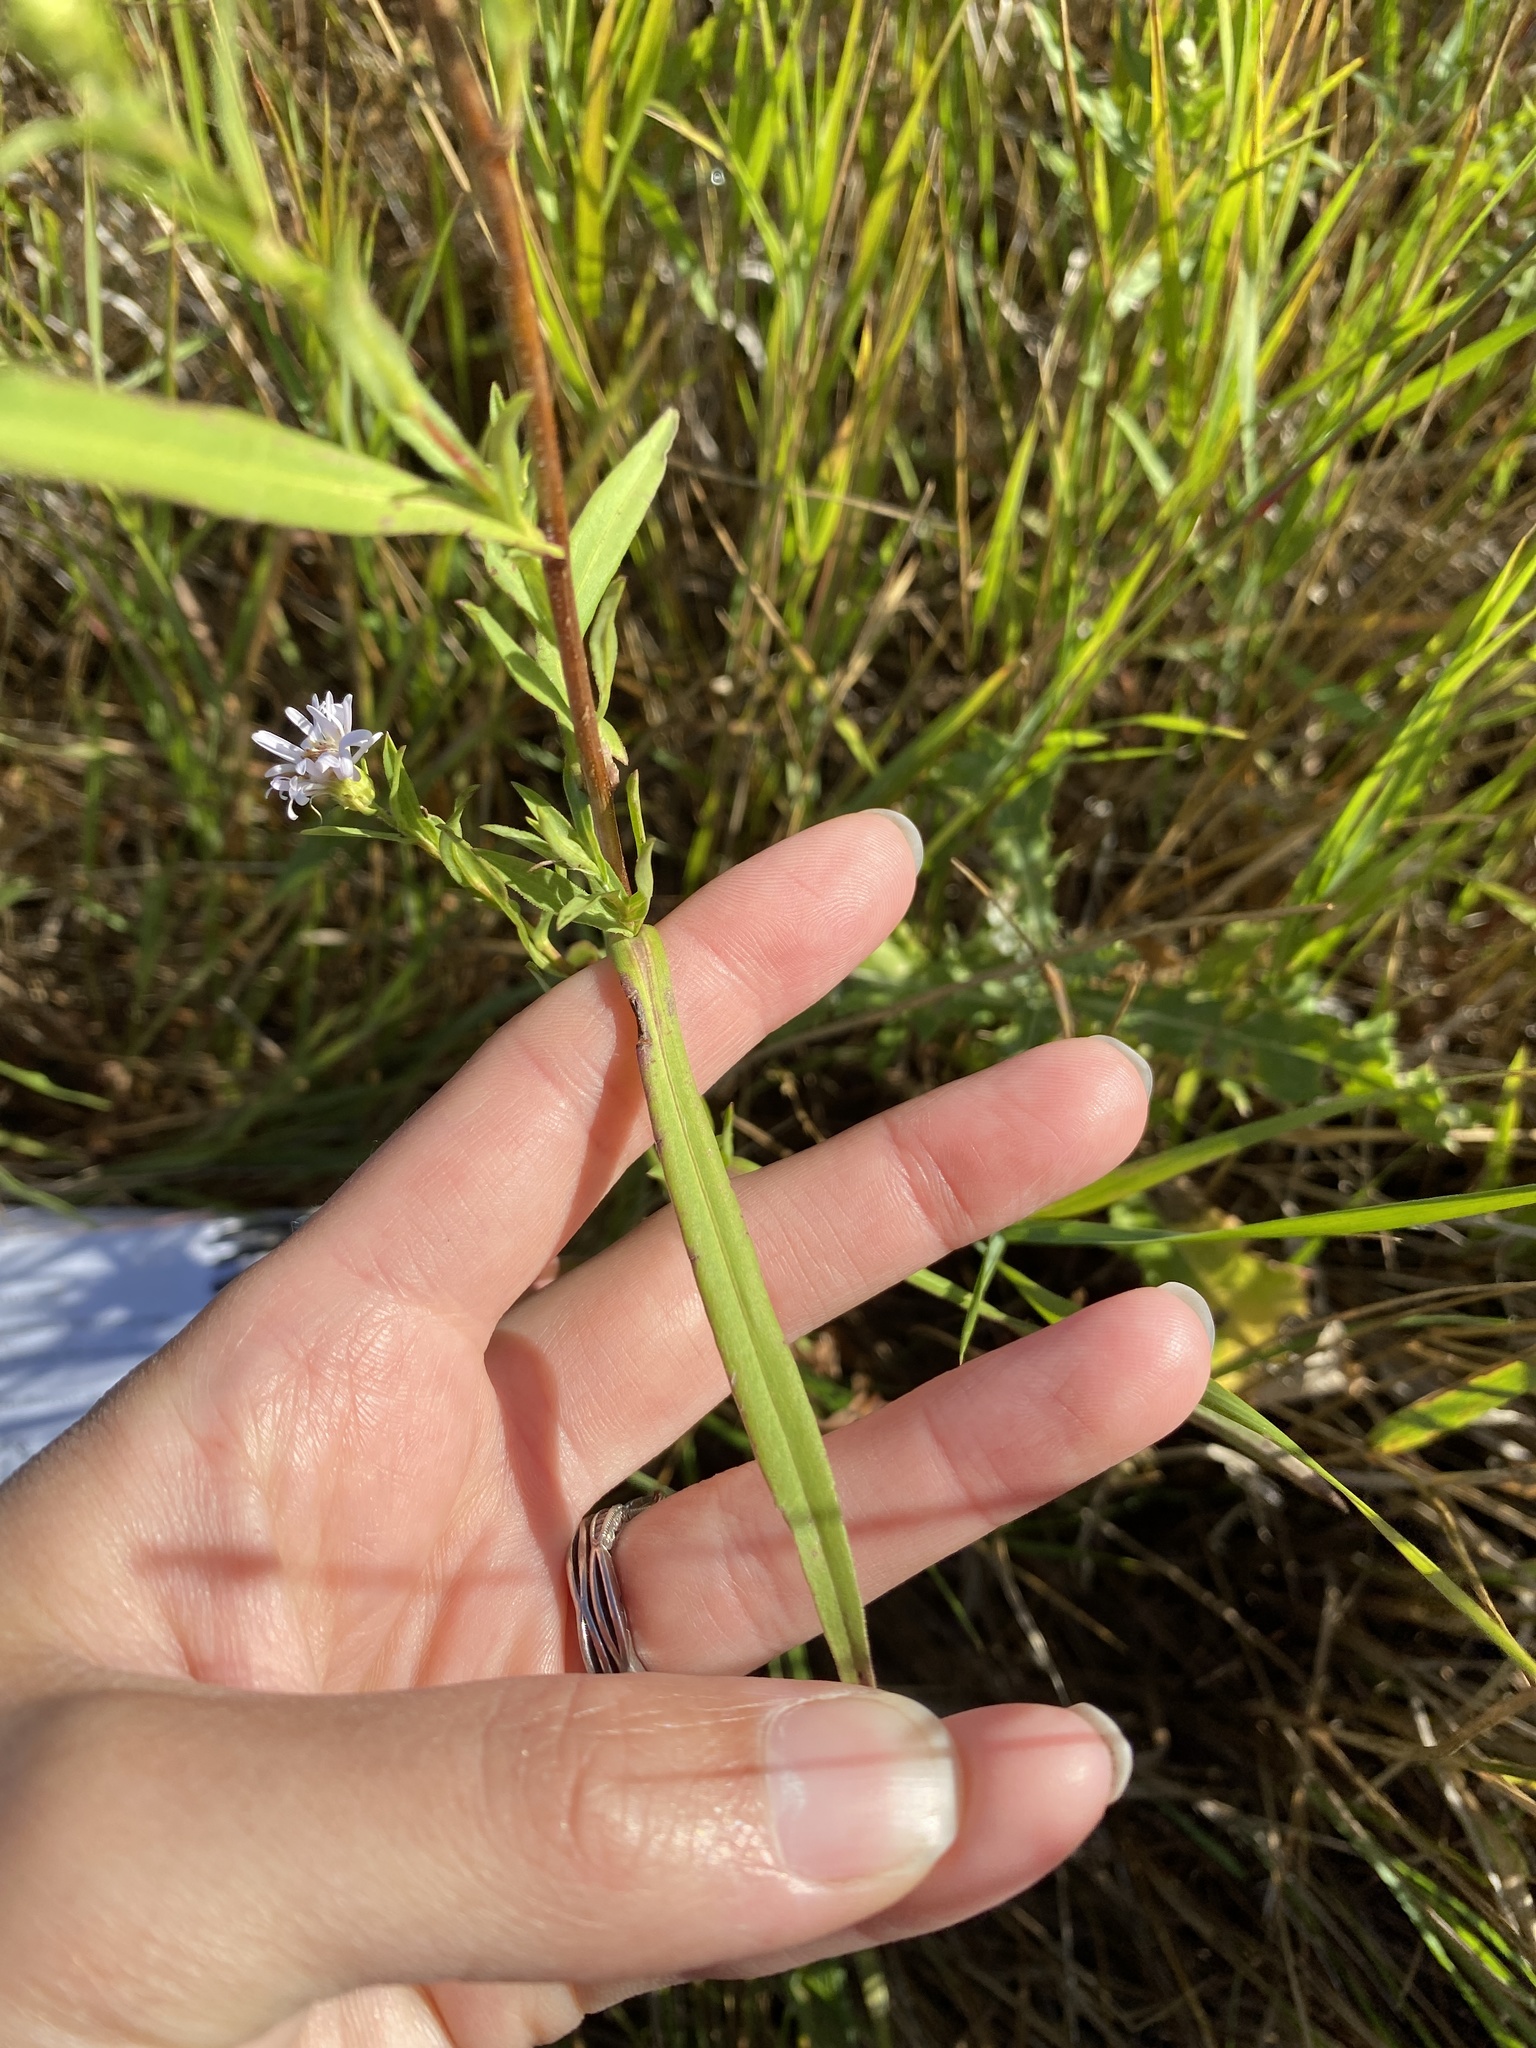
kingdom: Plantae
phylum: Tracheophyta
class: Magnoliopsida
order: Asterales
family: Asteraceae
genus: Symphyotrichum
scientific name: Symphyotrichum lanceolatum
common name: Panicled aster
